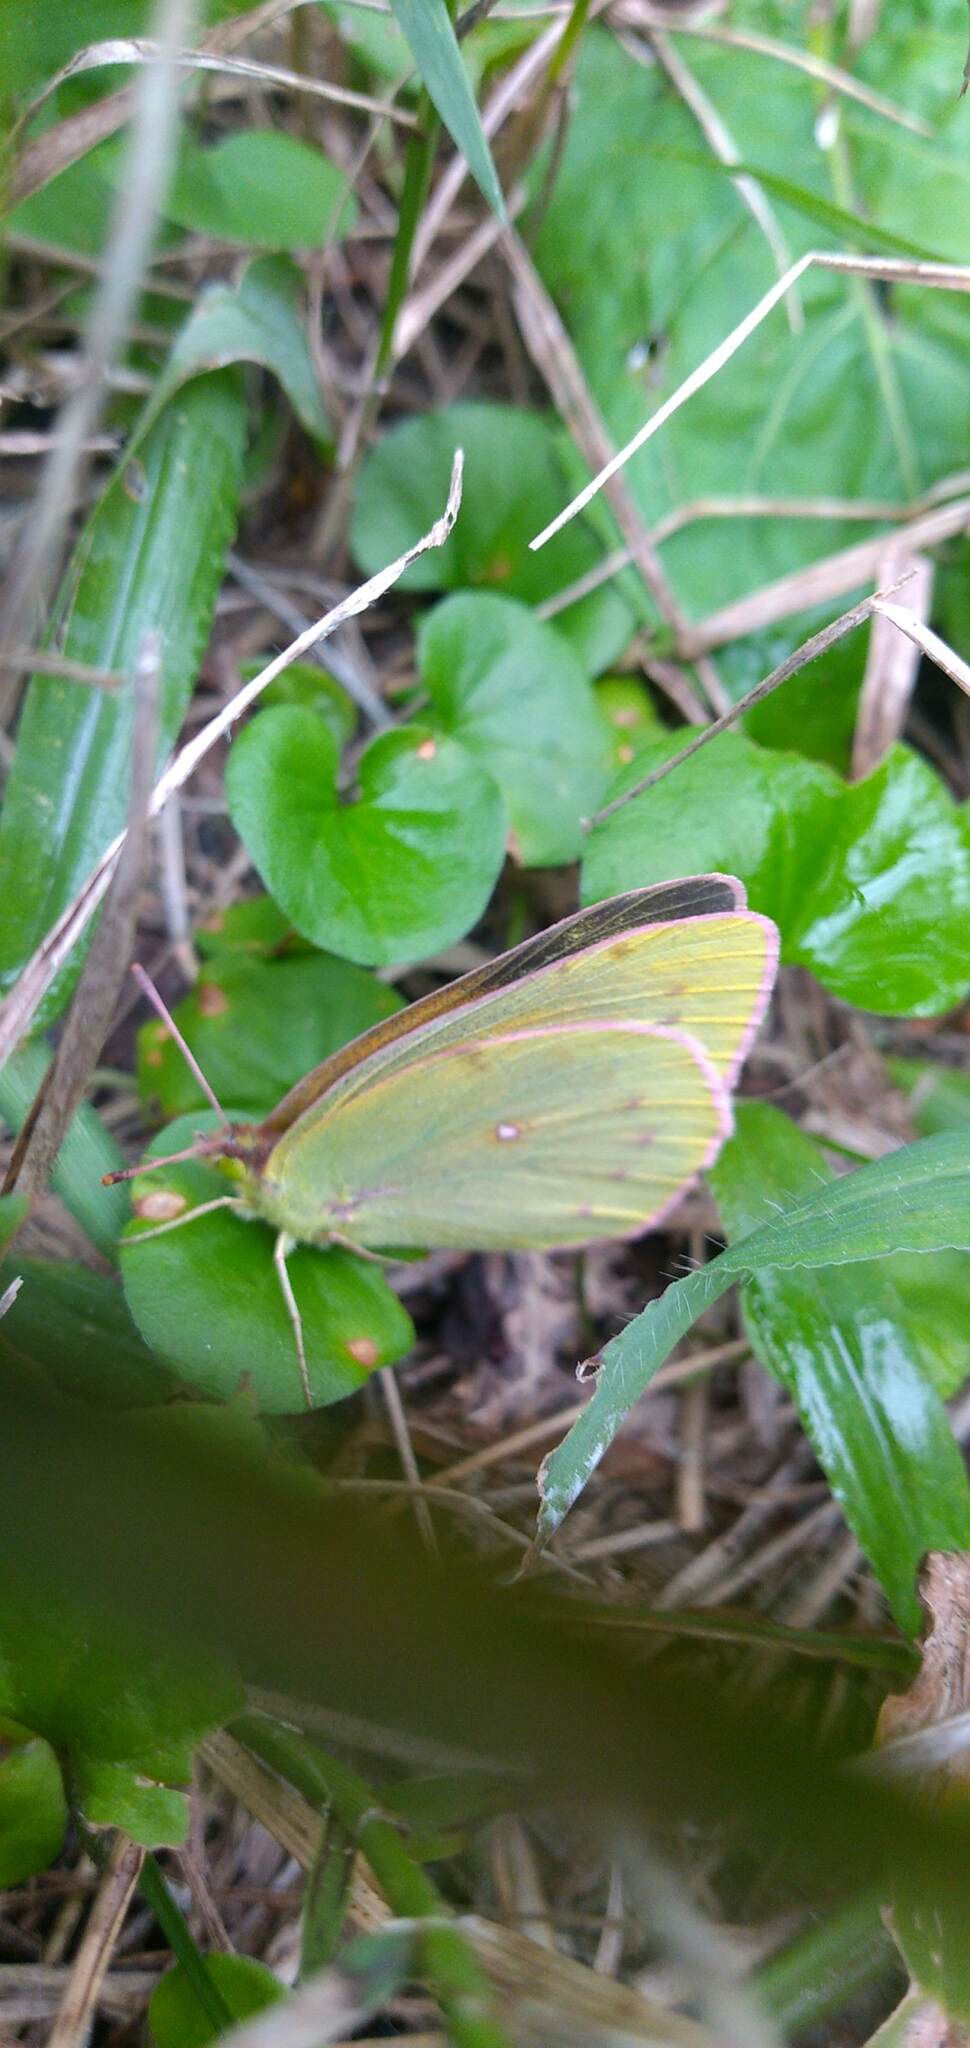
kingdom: Animalia
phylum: Arthropoda
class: Insecta
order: Lepidoptera
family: Pieridae
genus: Colias
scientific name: Colias lesbia
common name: Lesbia clouded yellow
